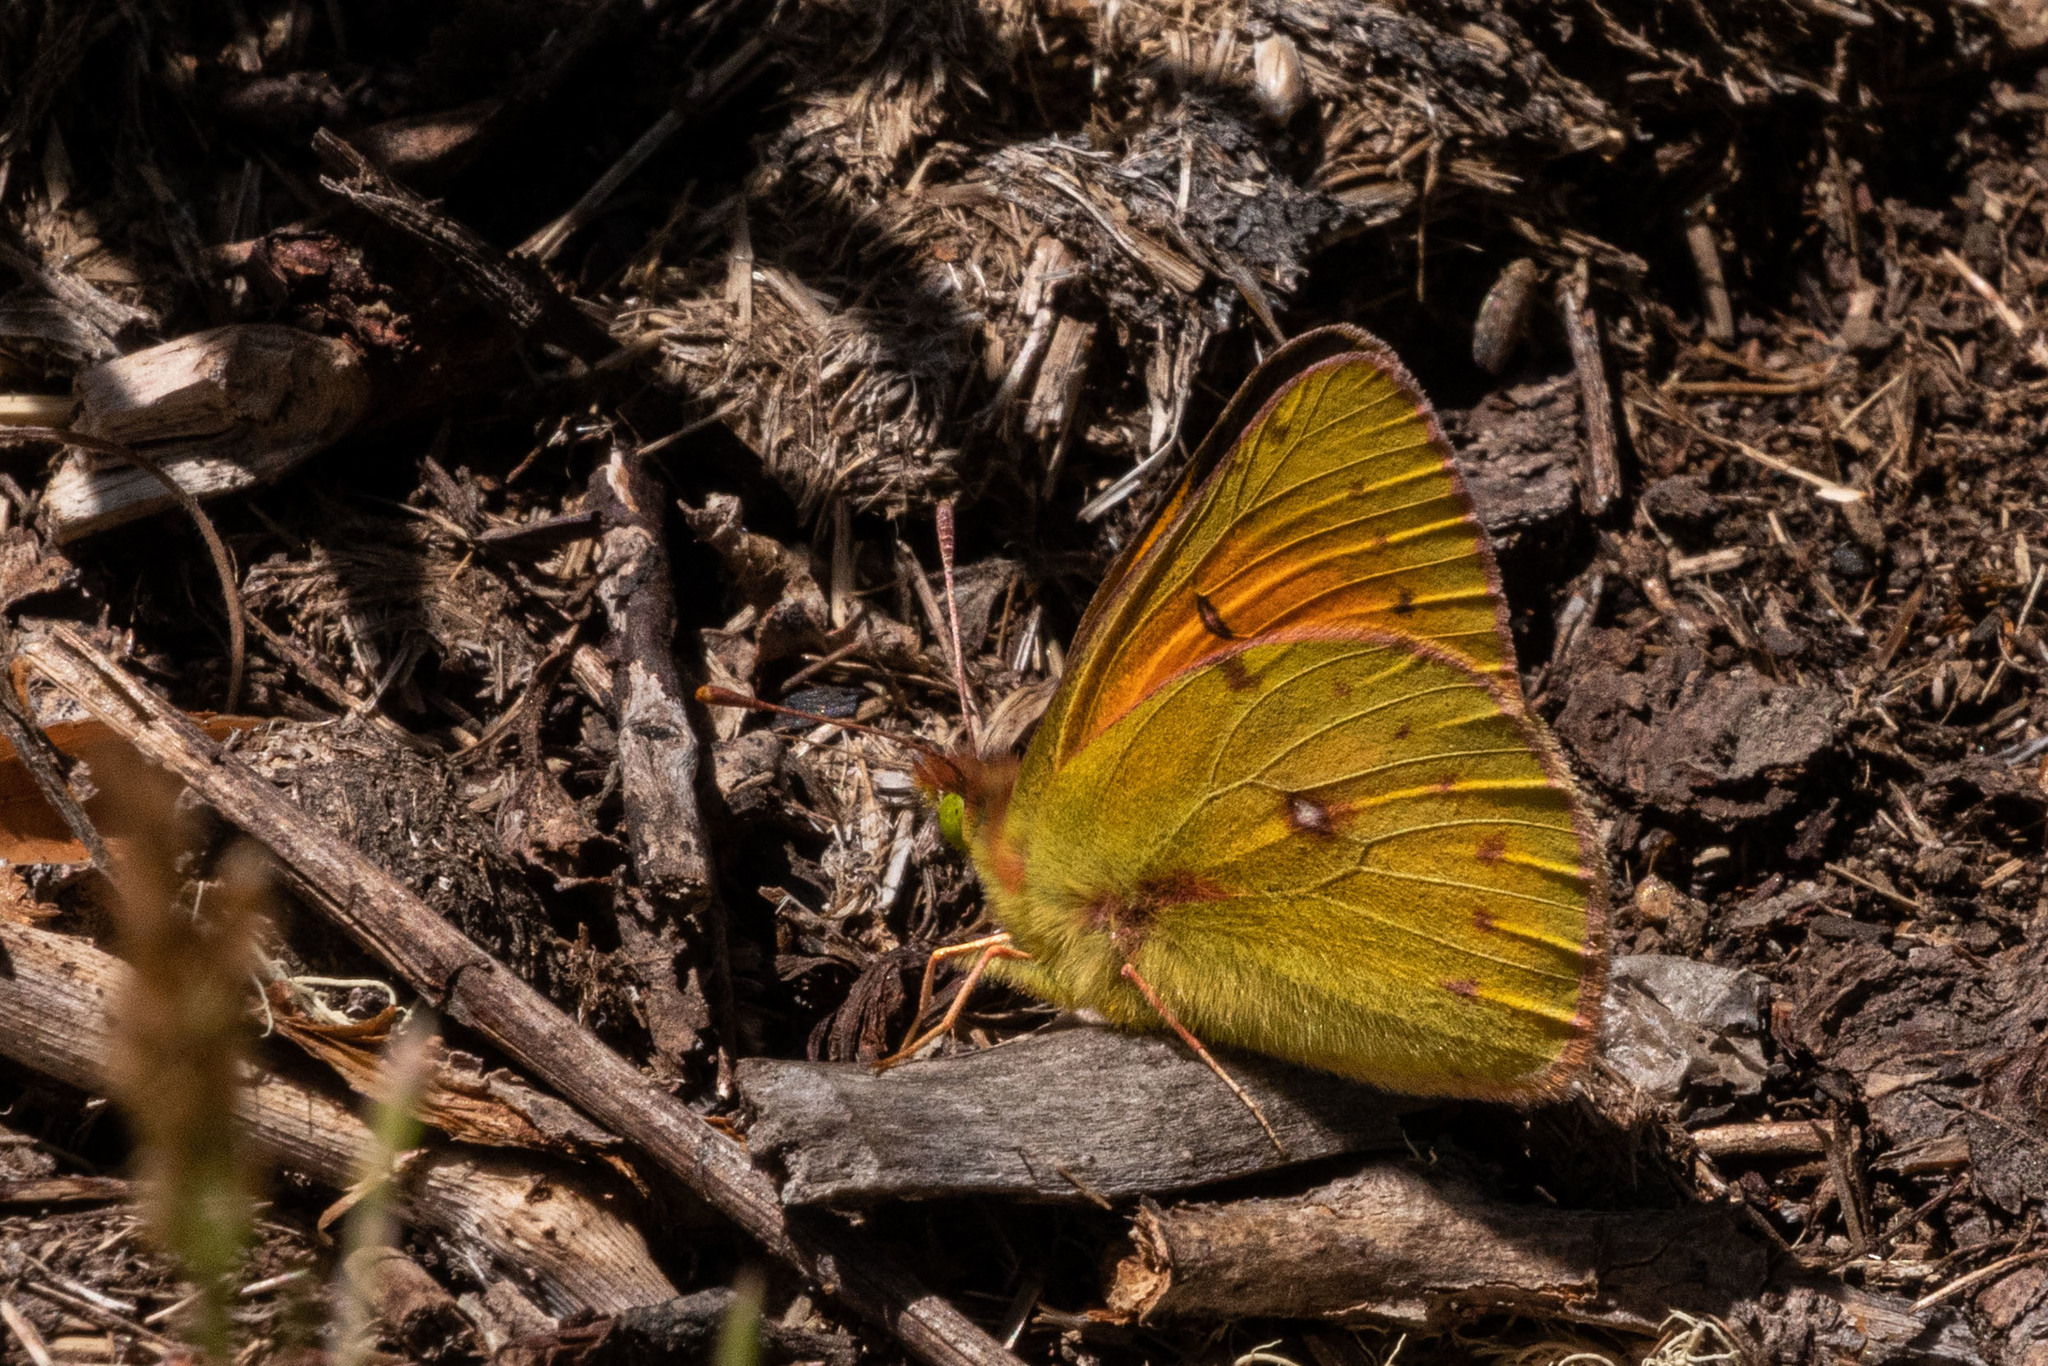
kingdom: Animalia
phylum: Arthropoda
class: Insecta
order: Lepidoptera
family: Pieridae
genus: Colias
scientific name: Colias vauthierii
